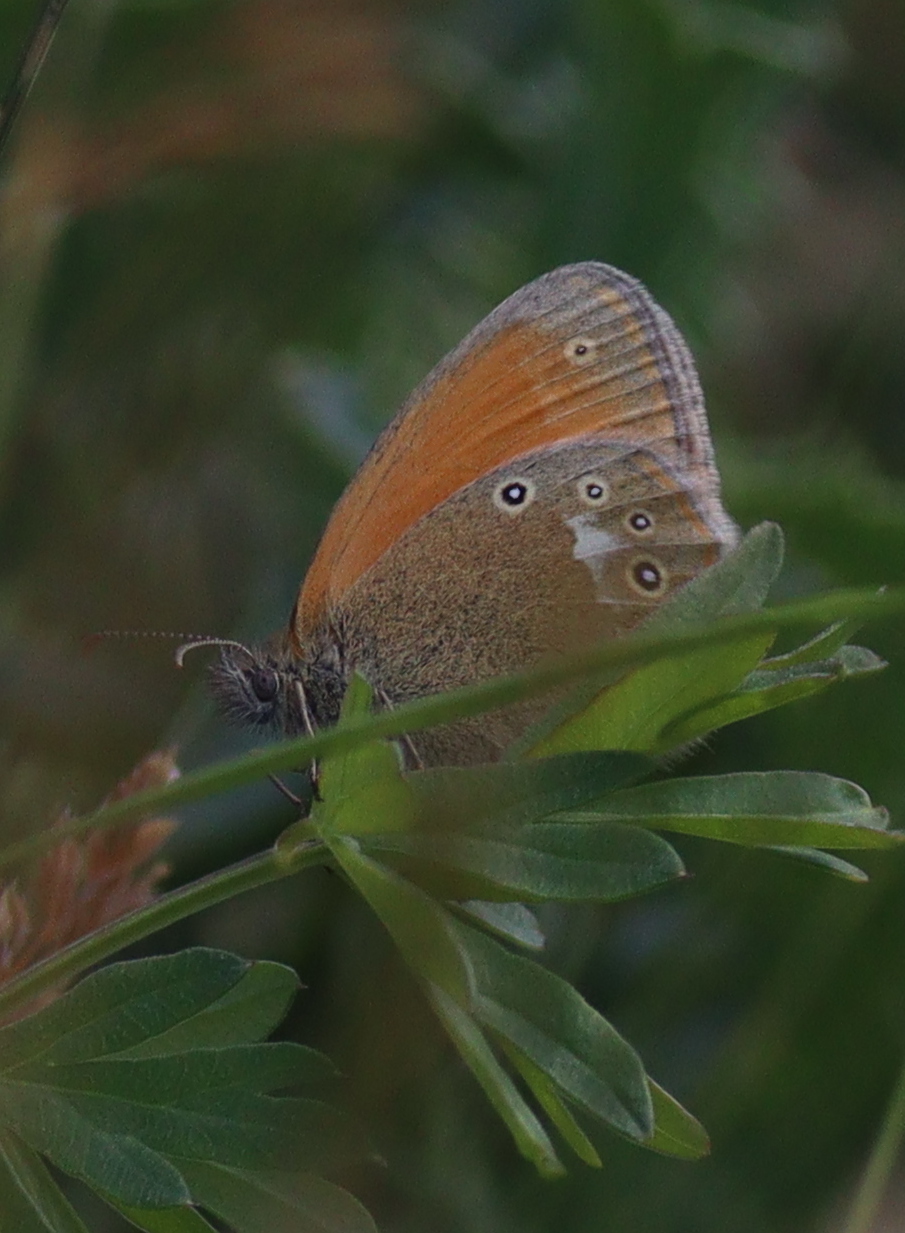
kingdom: Animalia
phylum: Arthropoda
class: Insecta
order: Lepidoptera
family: Nymphalidae
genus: Coenonympha
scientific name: Coenonympha iphis
